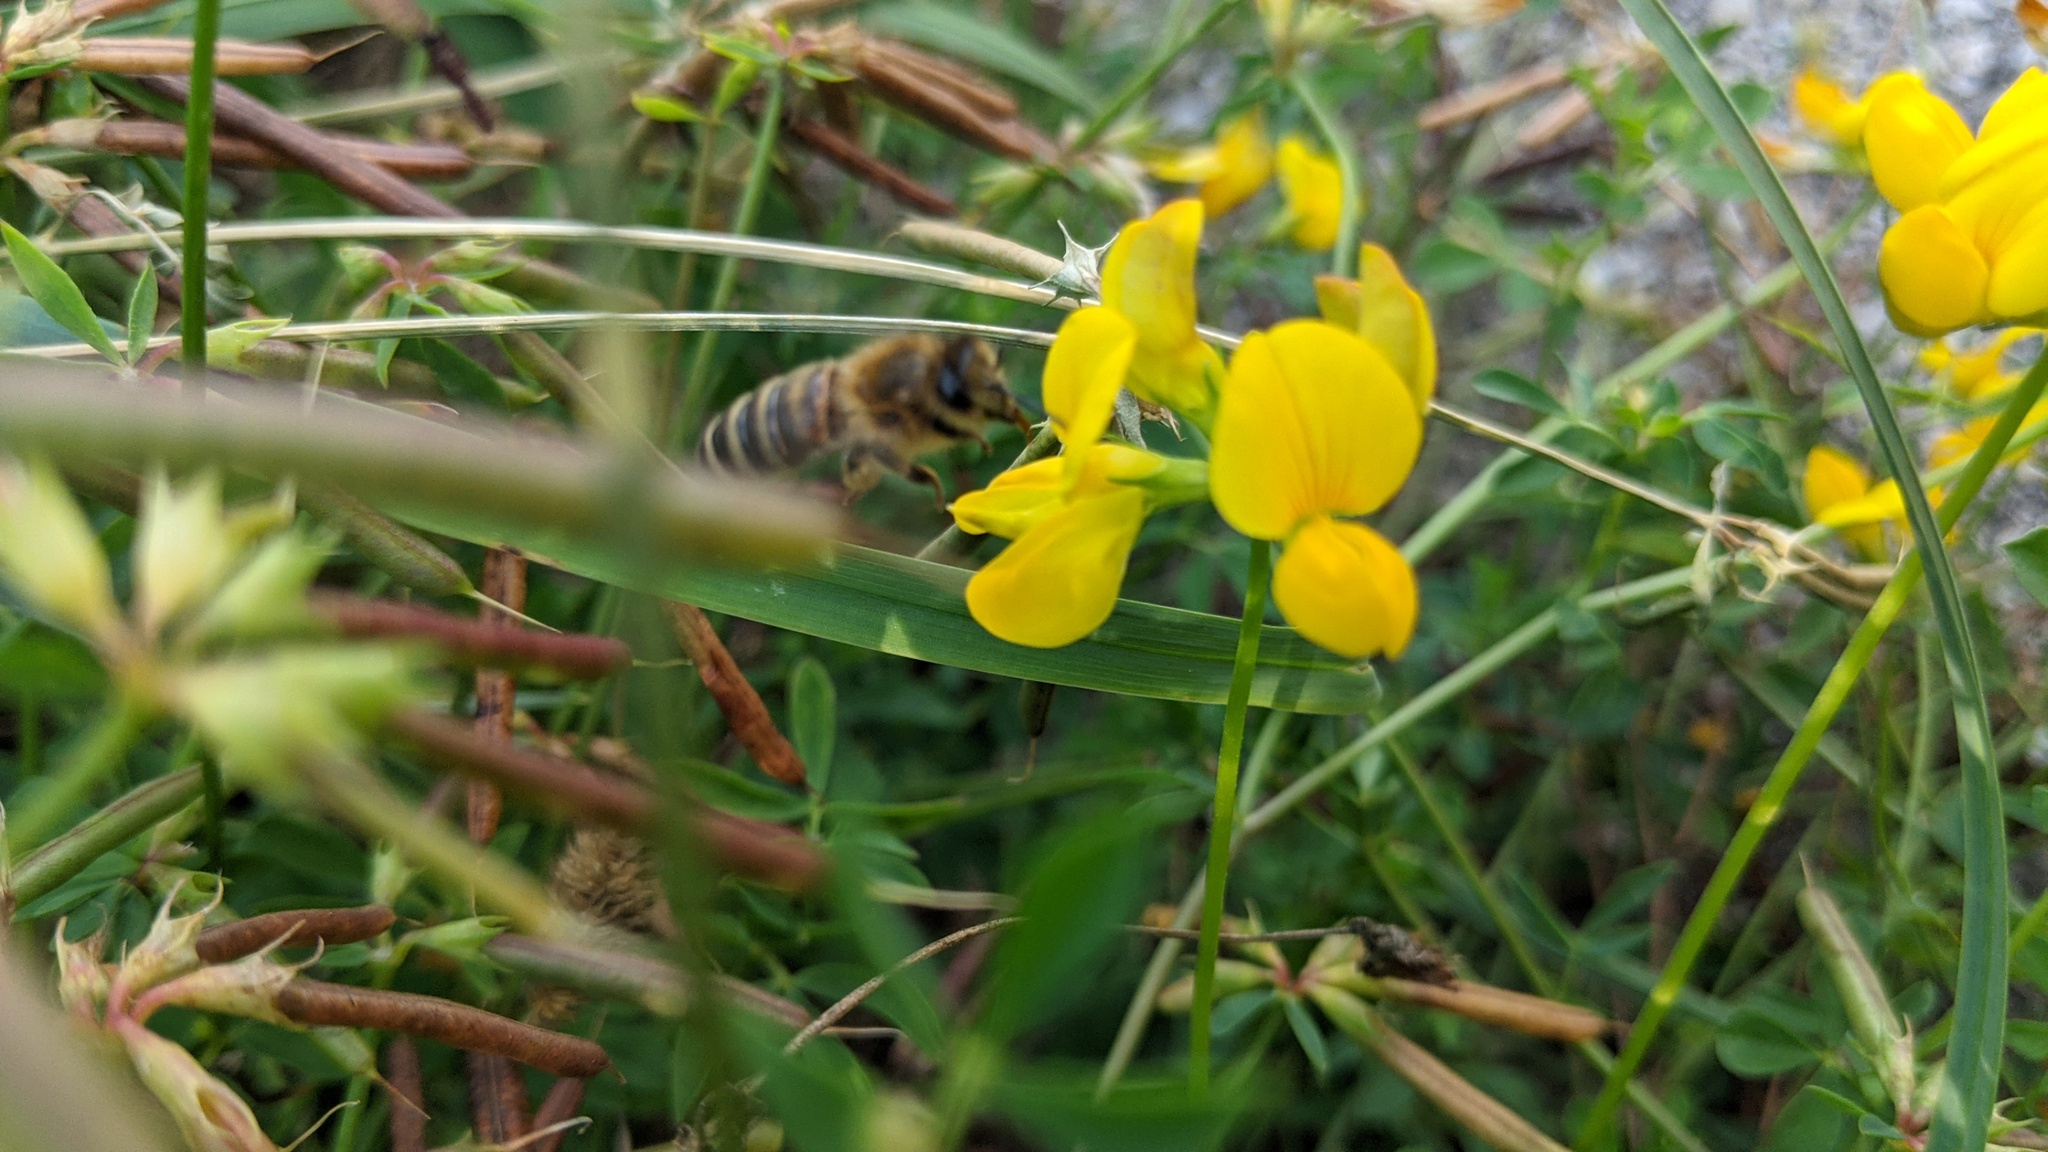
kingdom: Animalia
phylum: Arthropoda
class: Insecta
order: Hymenoptera
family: Apidae
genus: Apis
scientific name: Apis mellifera
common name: Honey bee
